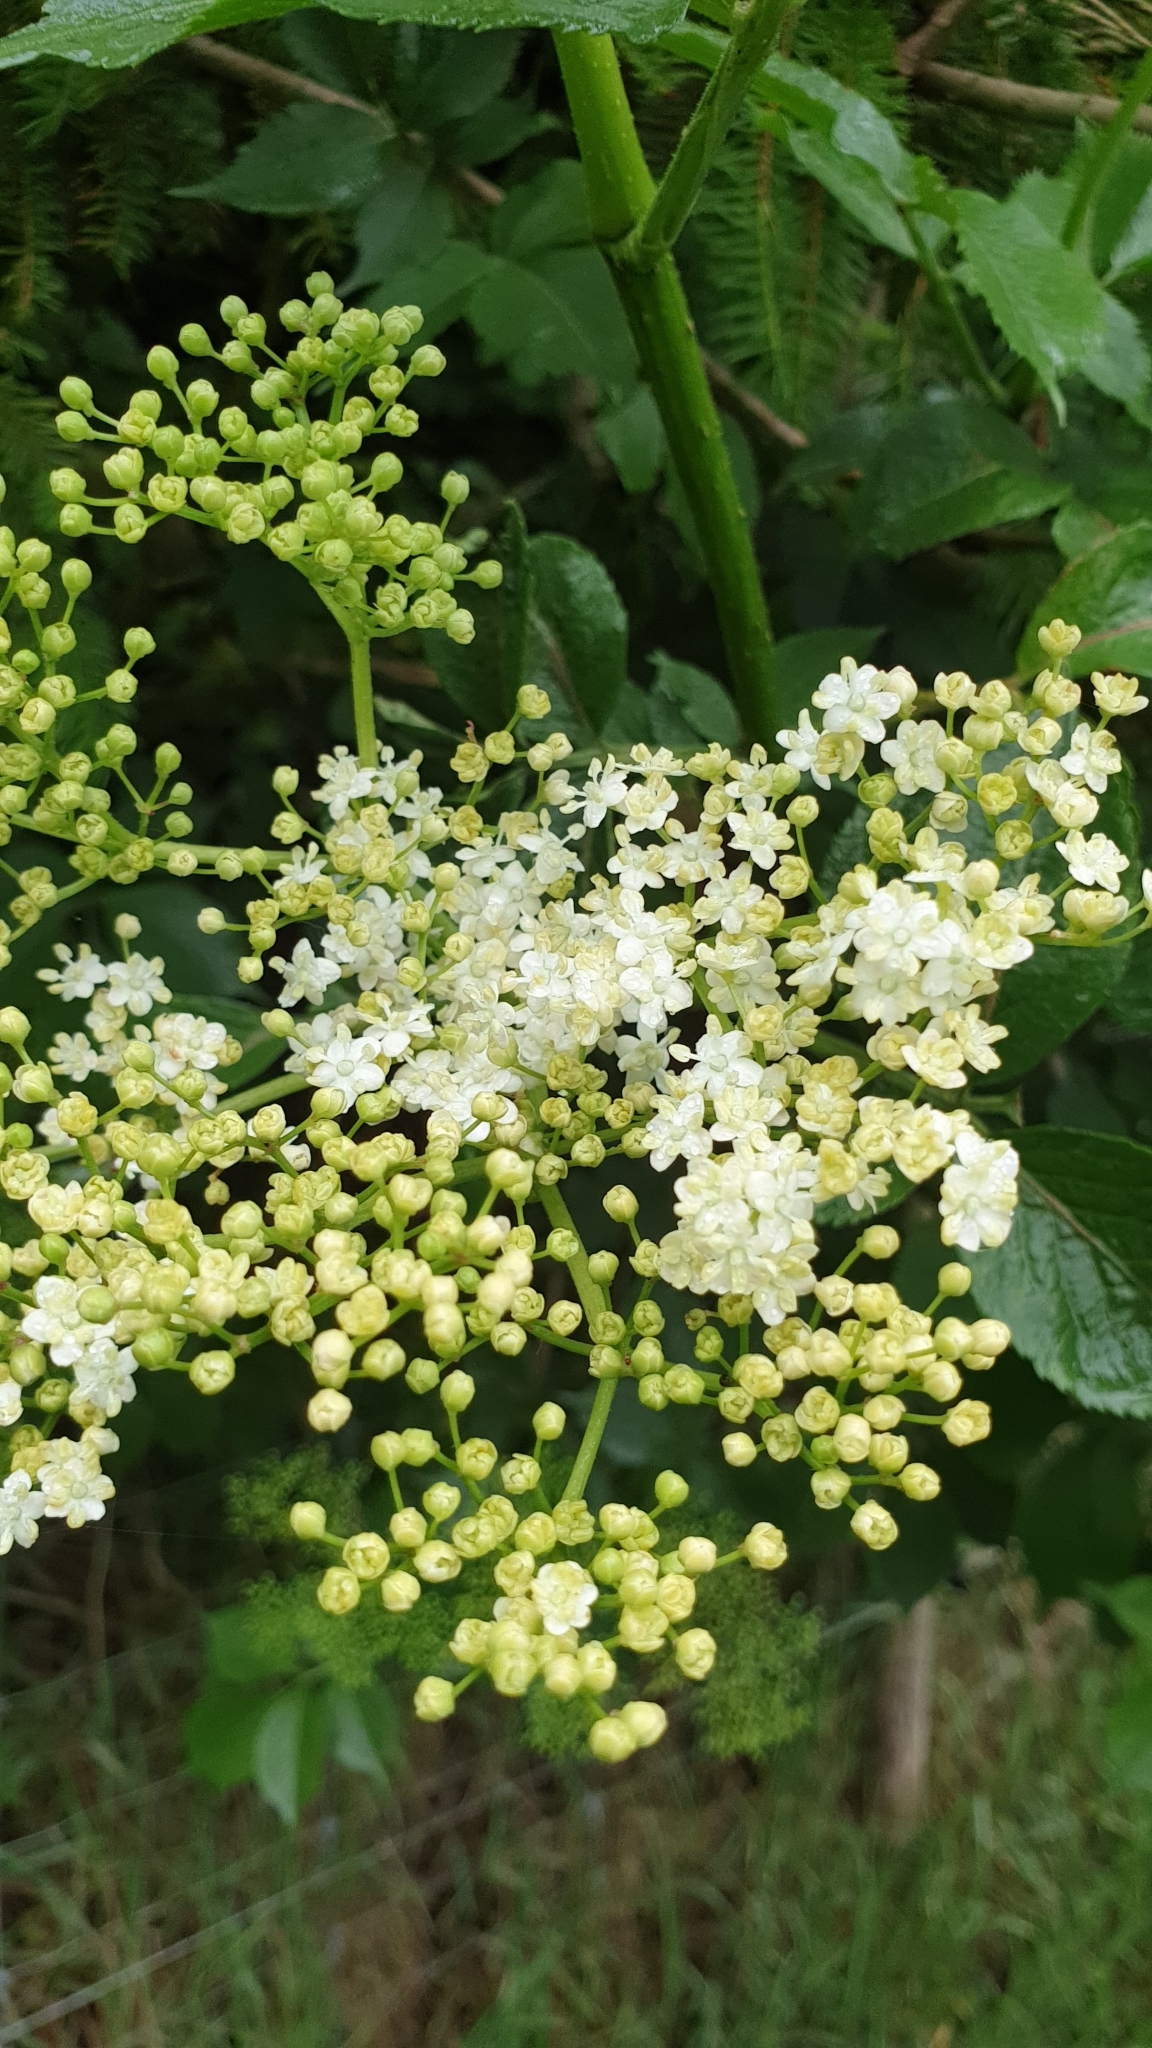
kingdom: Plantae
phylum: Tracheophyta
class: Magnoliopsida
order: Dipsacales
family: Viburnaceae
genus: Sambucus
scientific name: Sambucus nigra
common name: Elder
